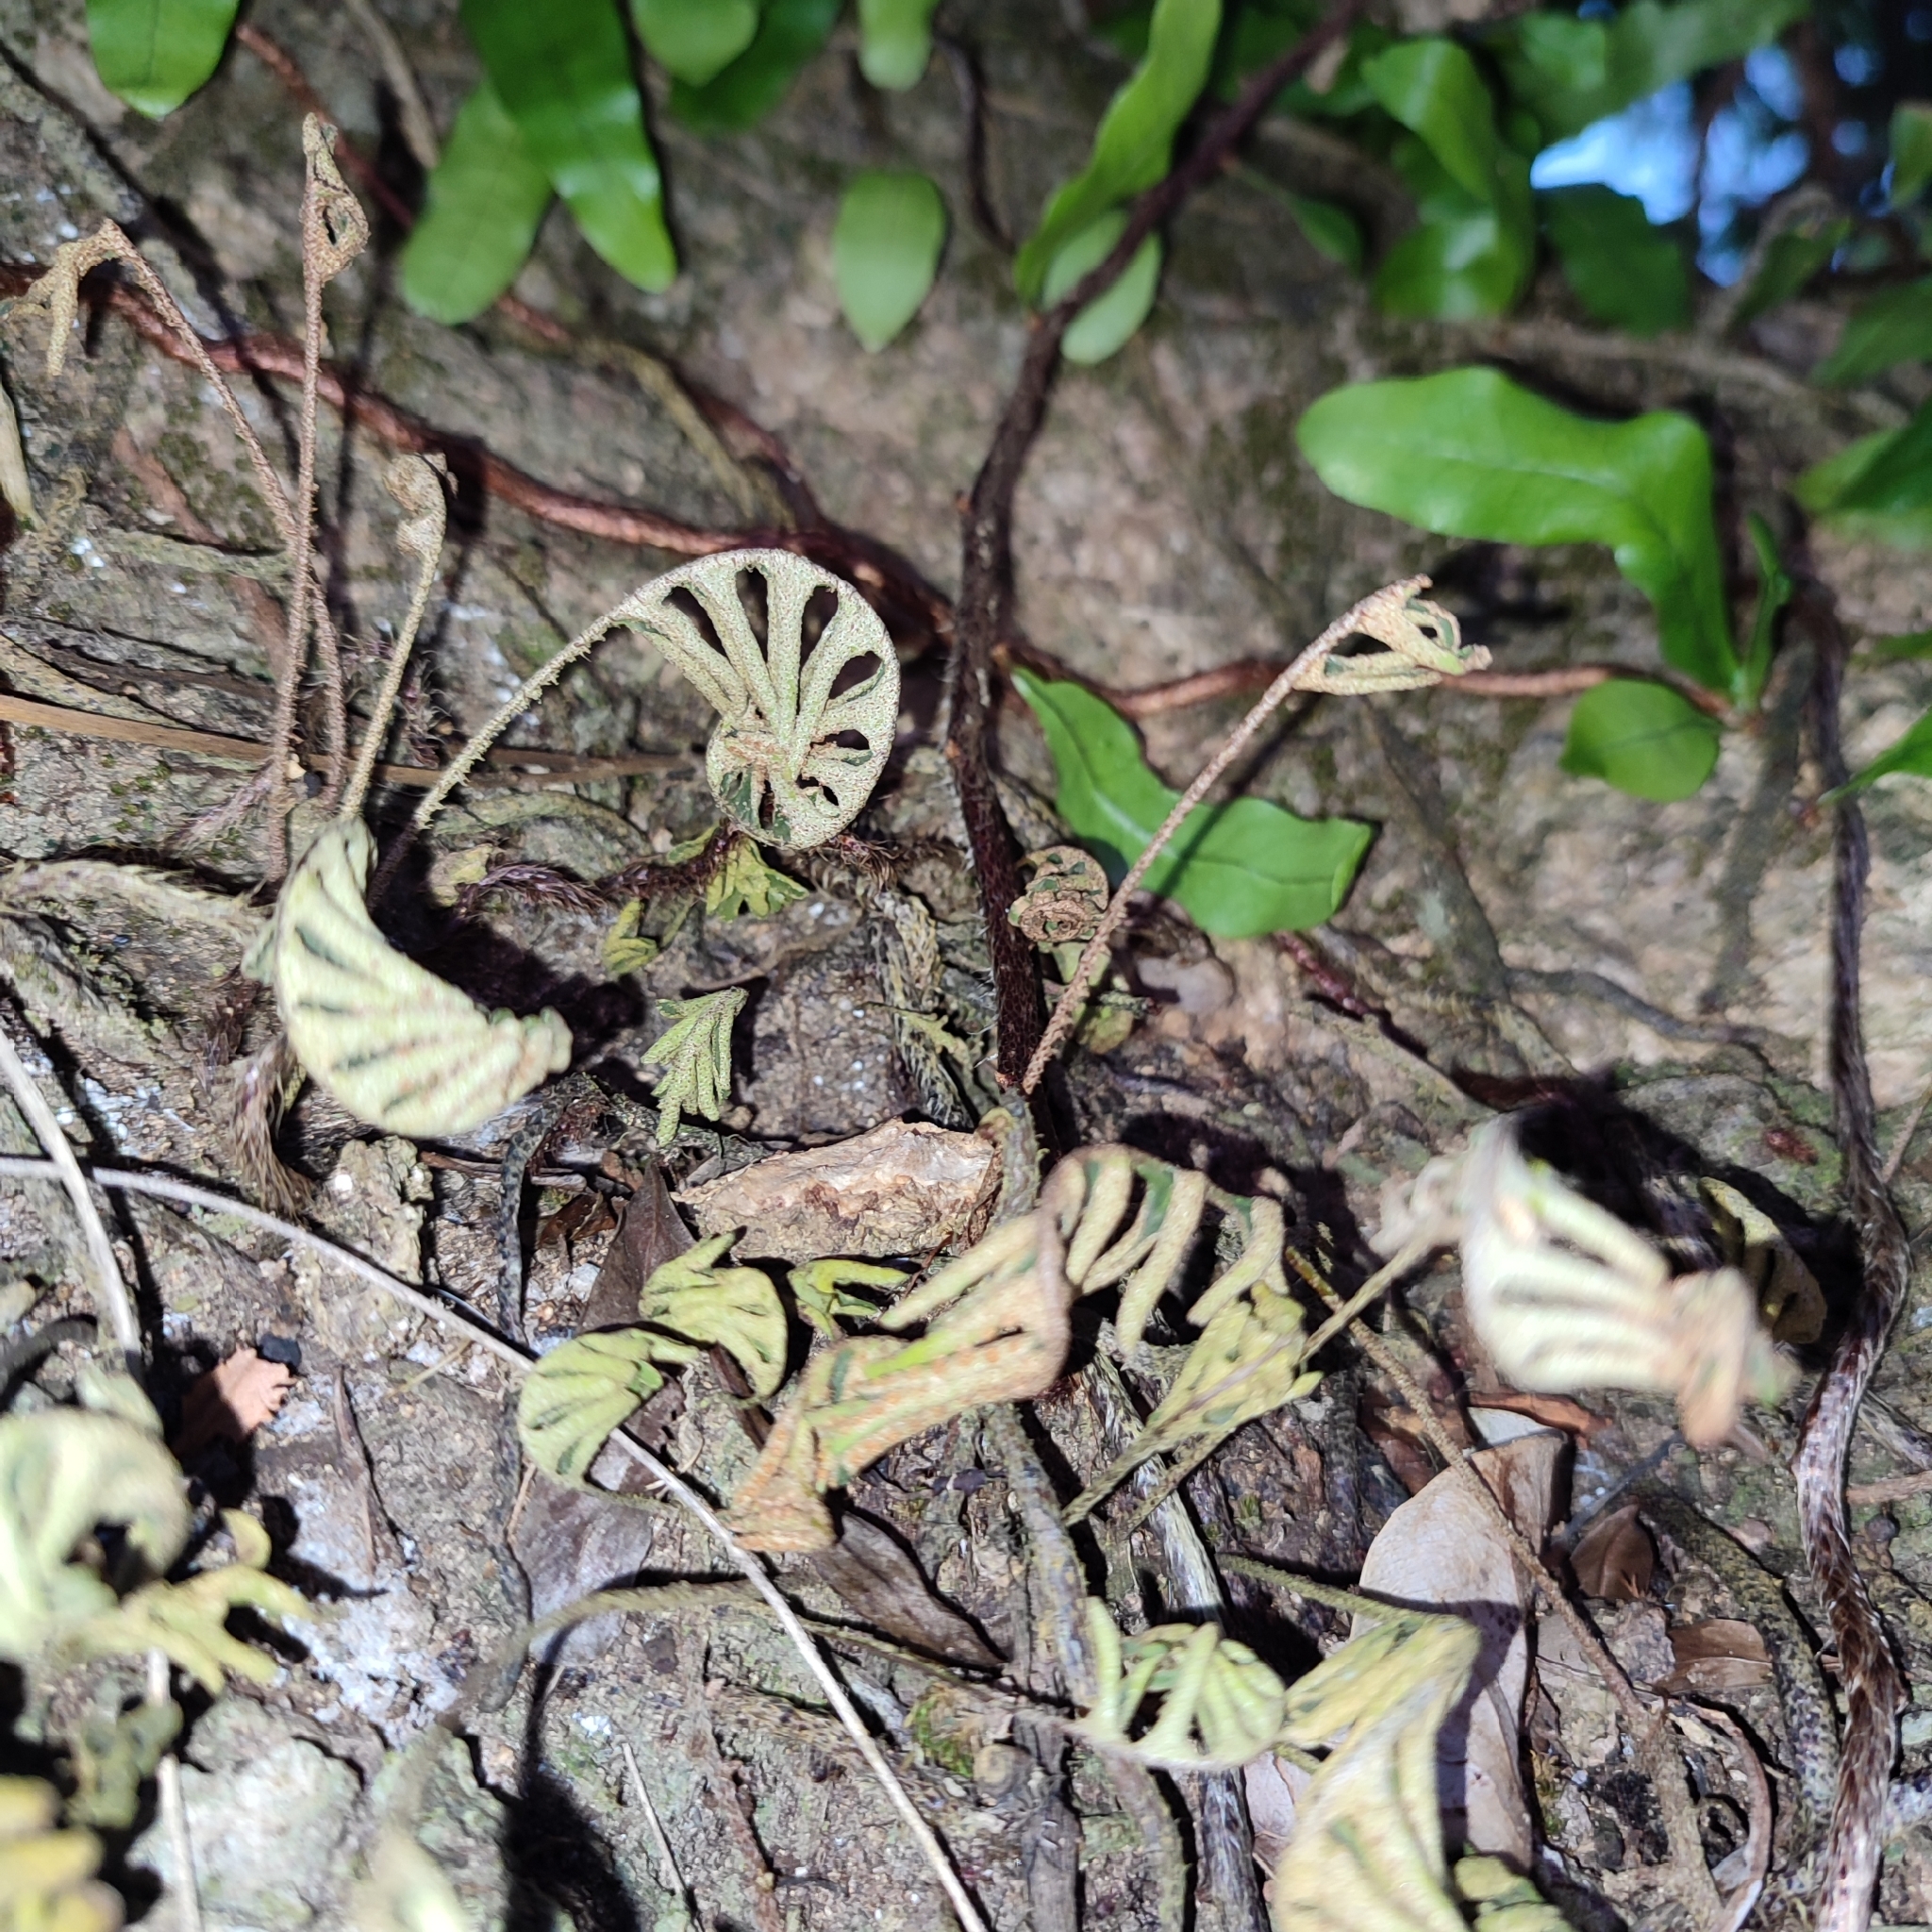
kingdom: Plantae
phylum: Tracheophyta
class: Polypodiopsida
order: Polypodiales
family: Polypodiaceae
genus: Pleopeltis
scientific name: Pleopeltis polypodioides
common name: Resurrection fern
